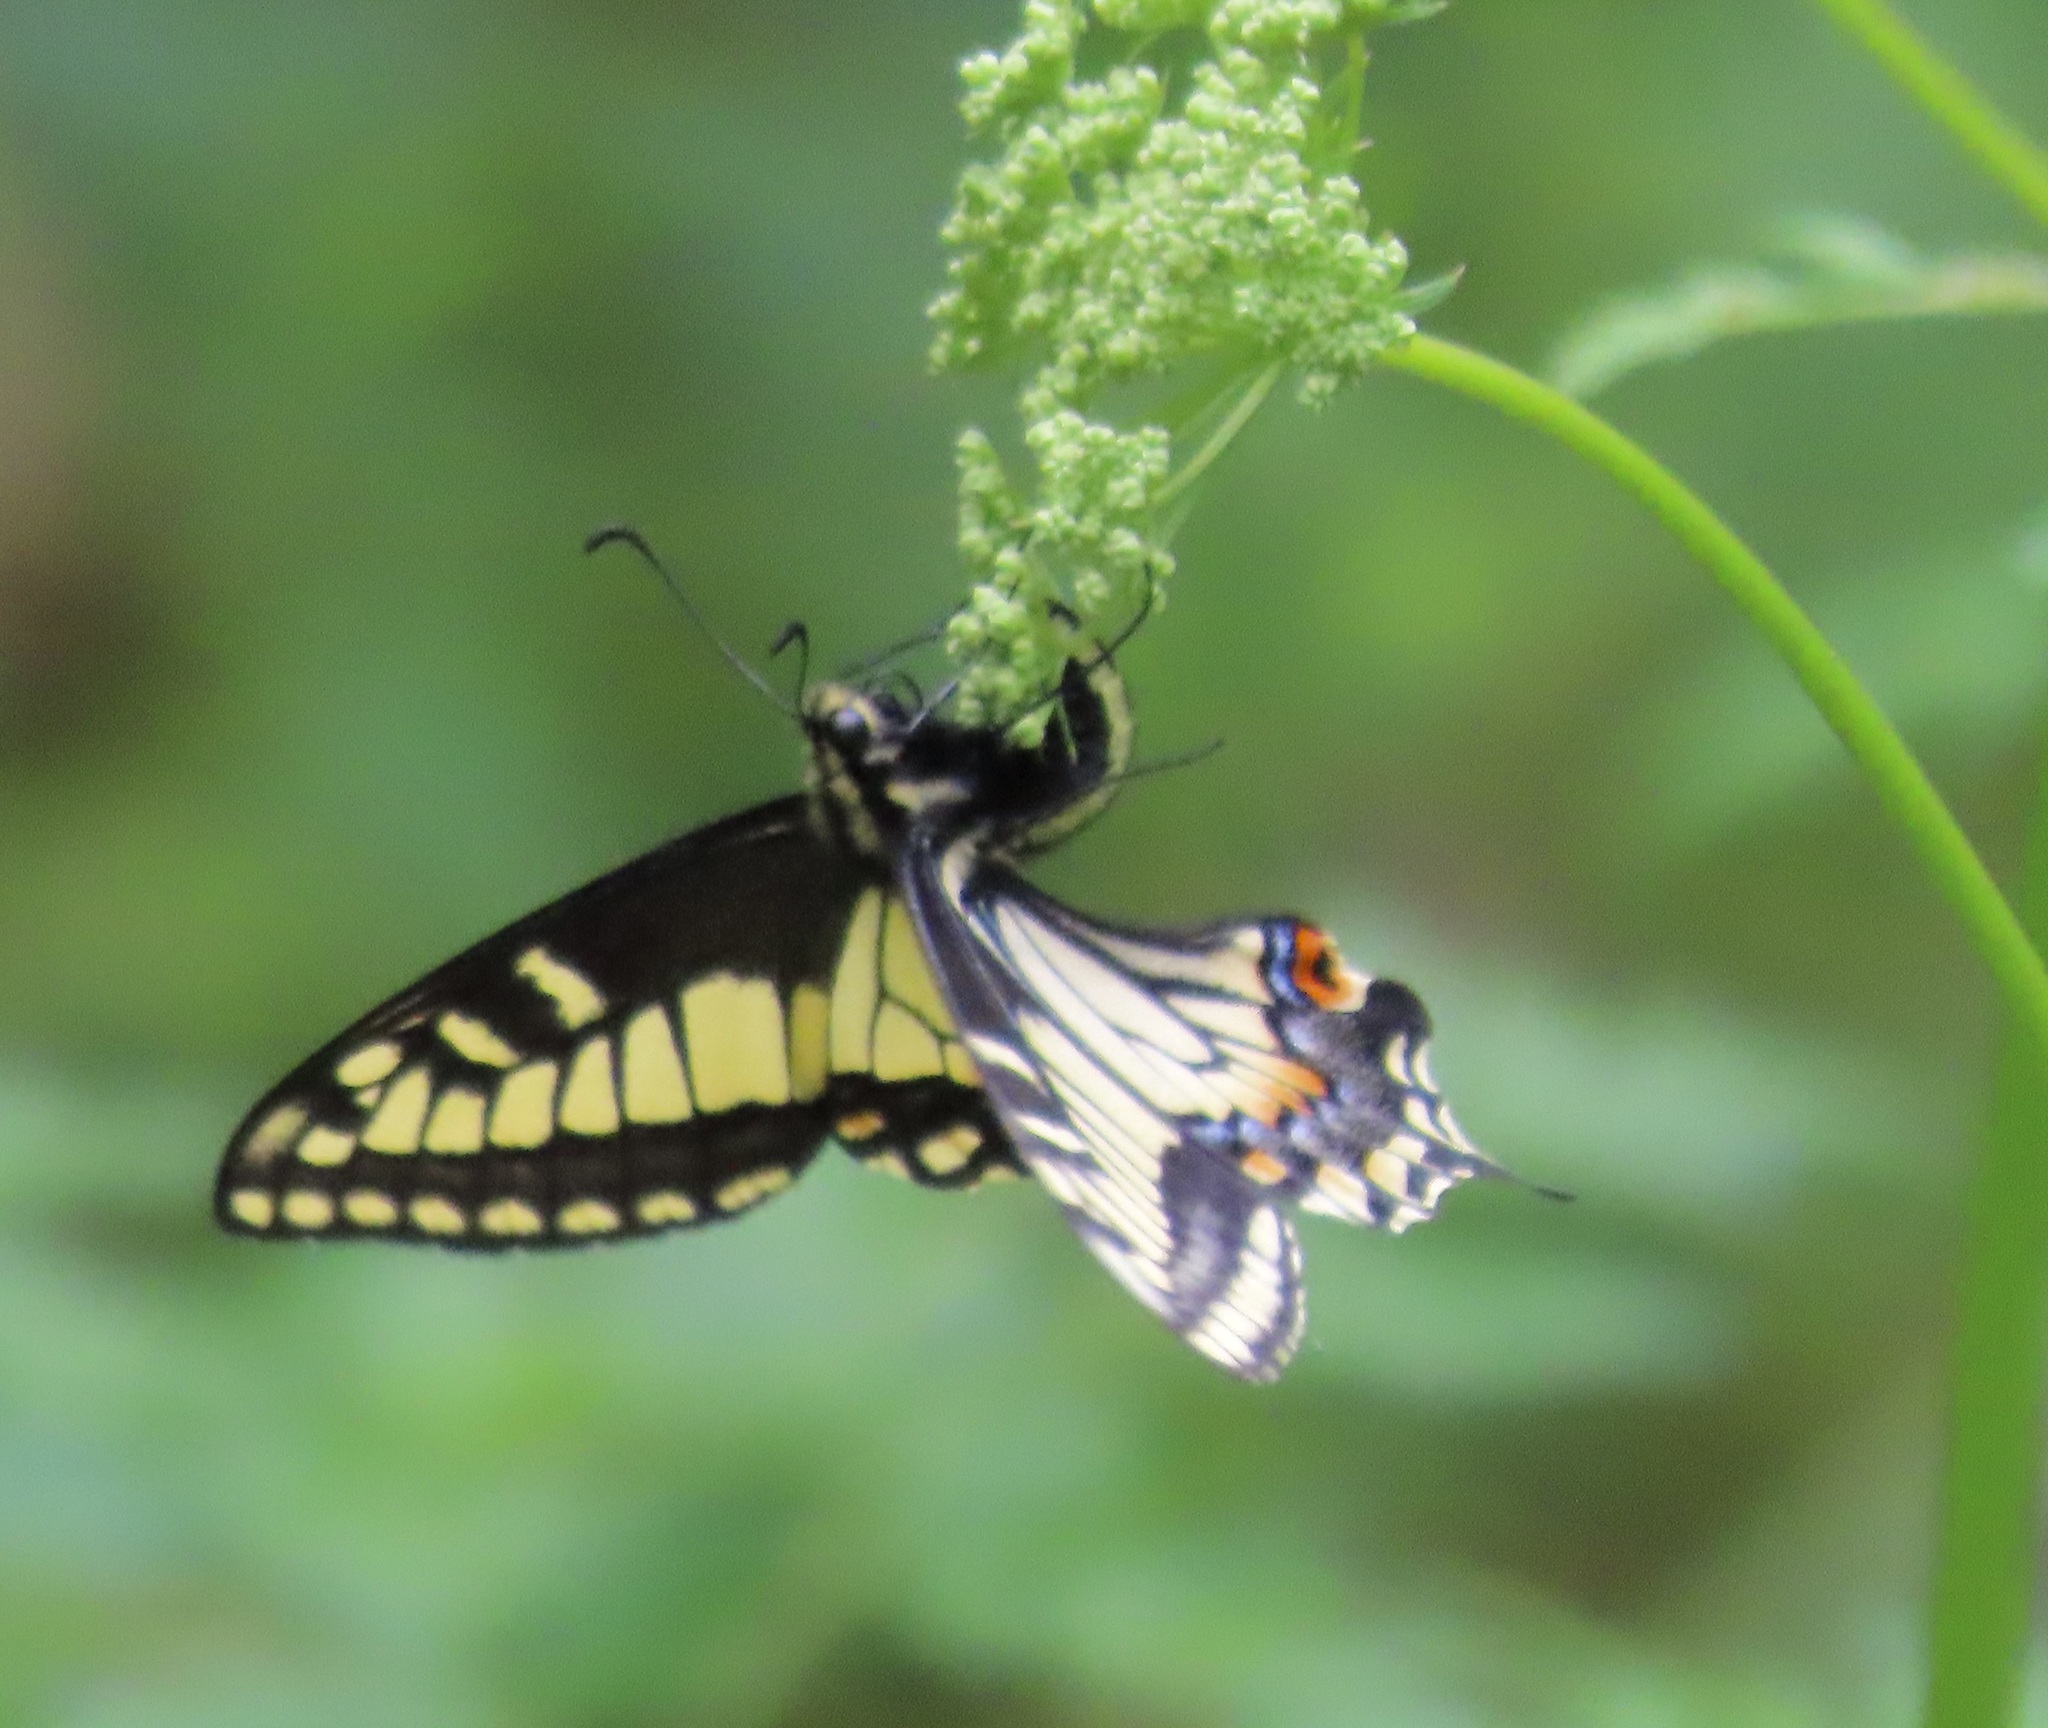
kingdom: Animalia
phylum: Arthropoda
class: Insecta
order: Lepidoptera
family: Papilionidae
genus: Papilio
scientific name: Papilio zelicaon
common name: Anise swallowtail
